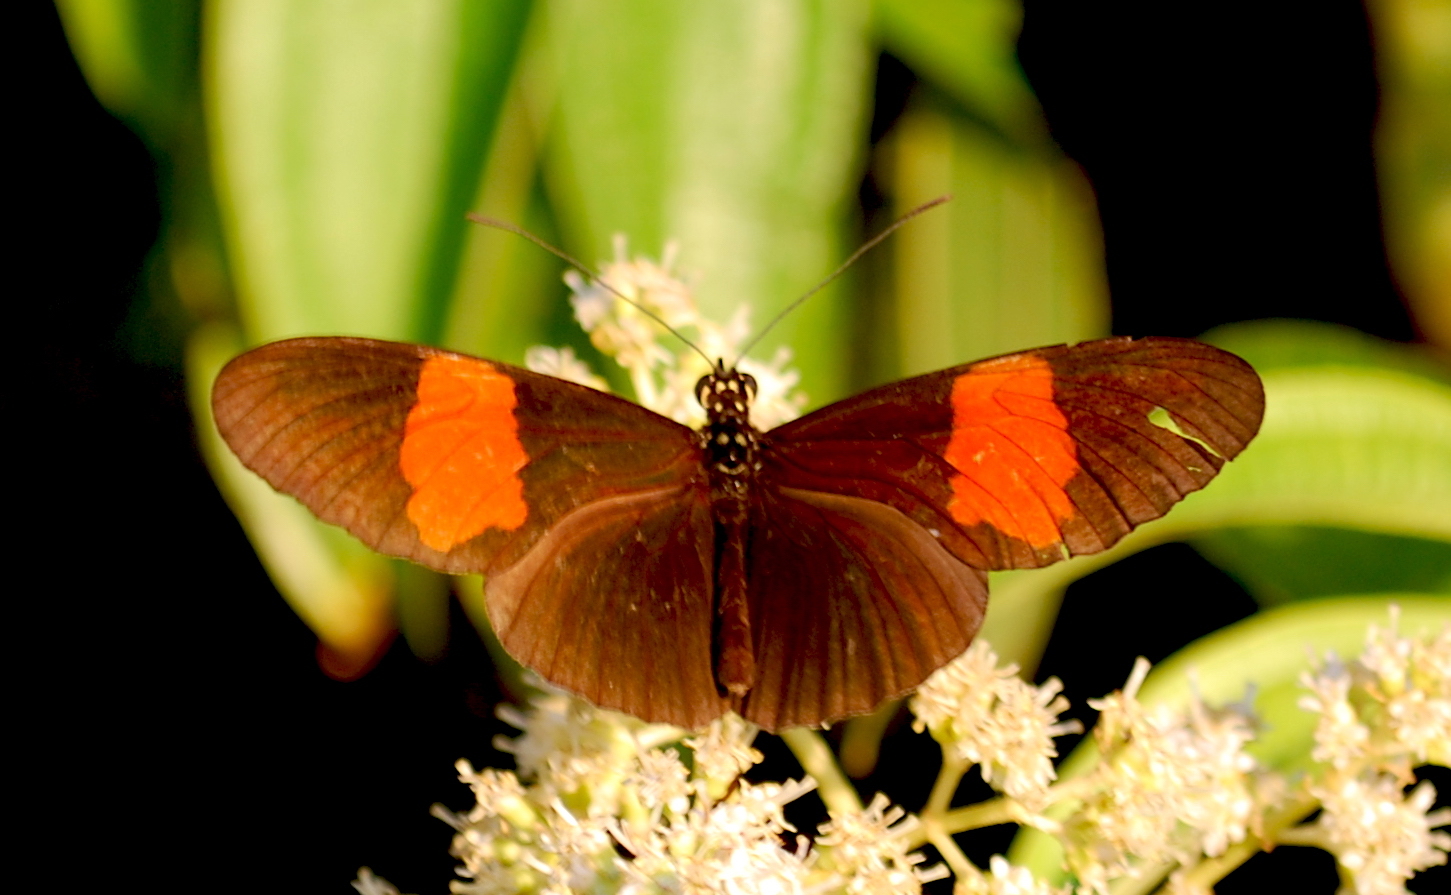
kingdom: Animalia
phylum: Arthropoda
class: Insecta
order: Lepidoptera
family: Nymphalidae
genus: Heliconius
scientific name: Heliconius erato
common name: Common patch longwing
